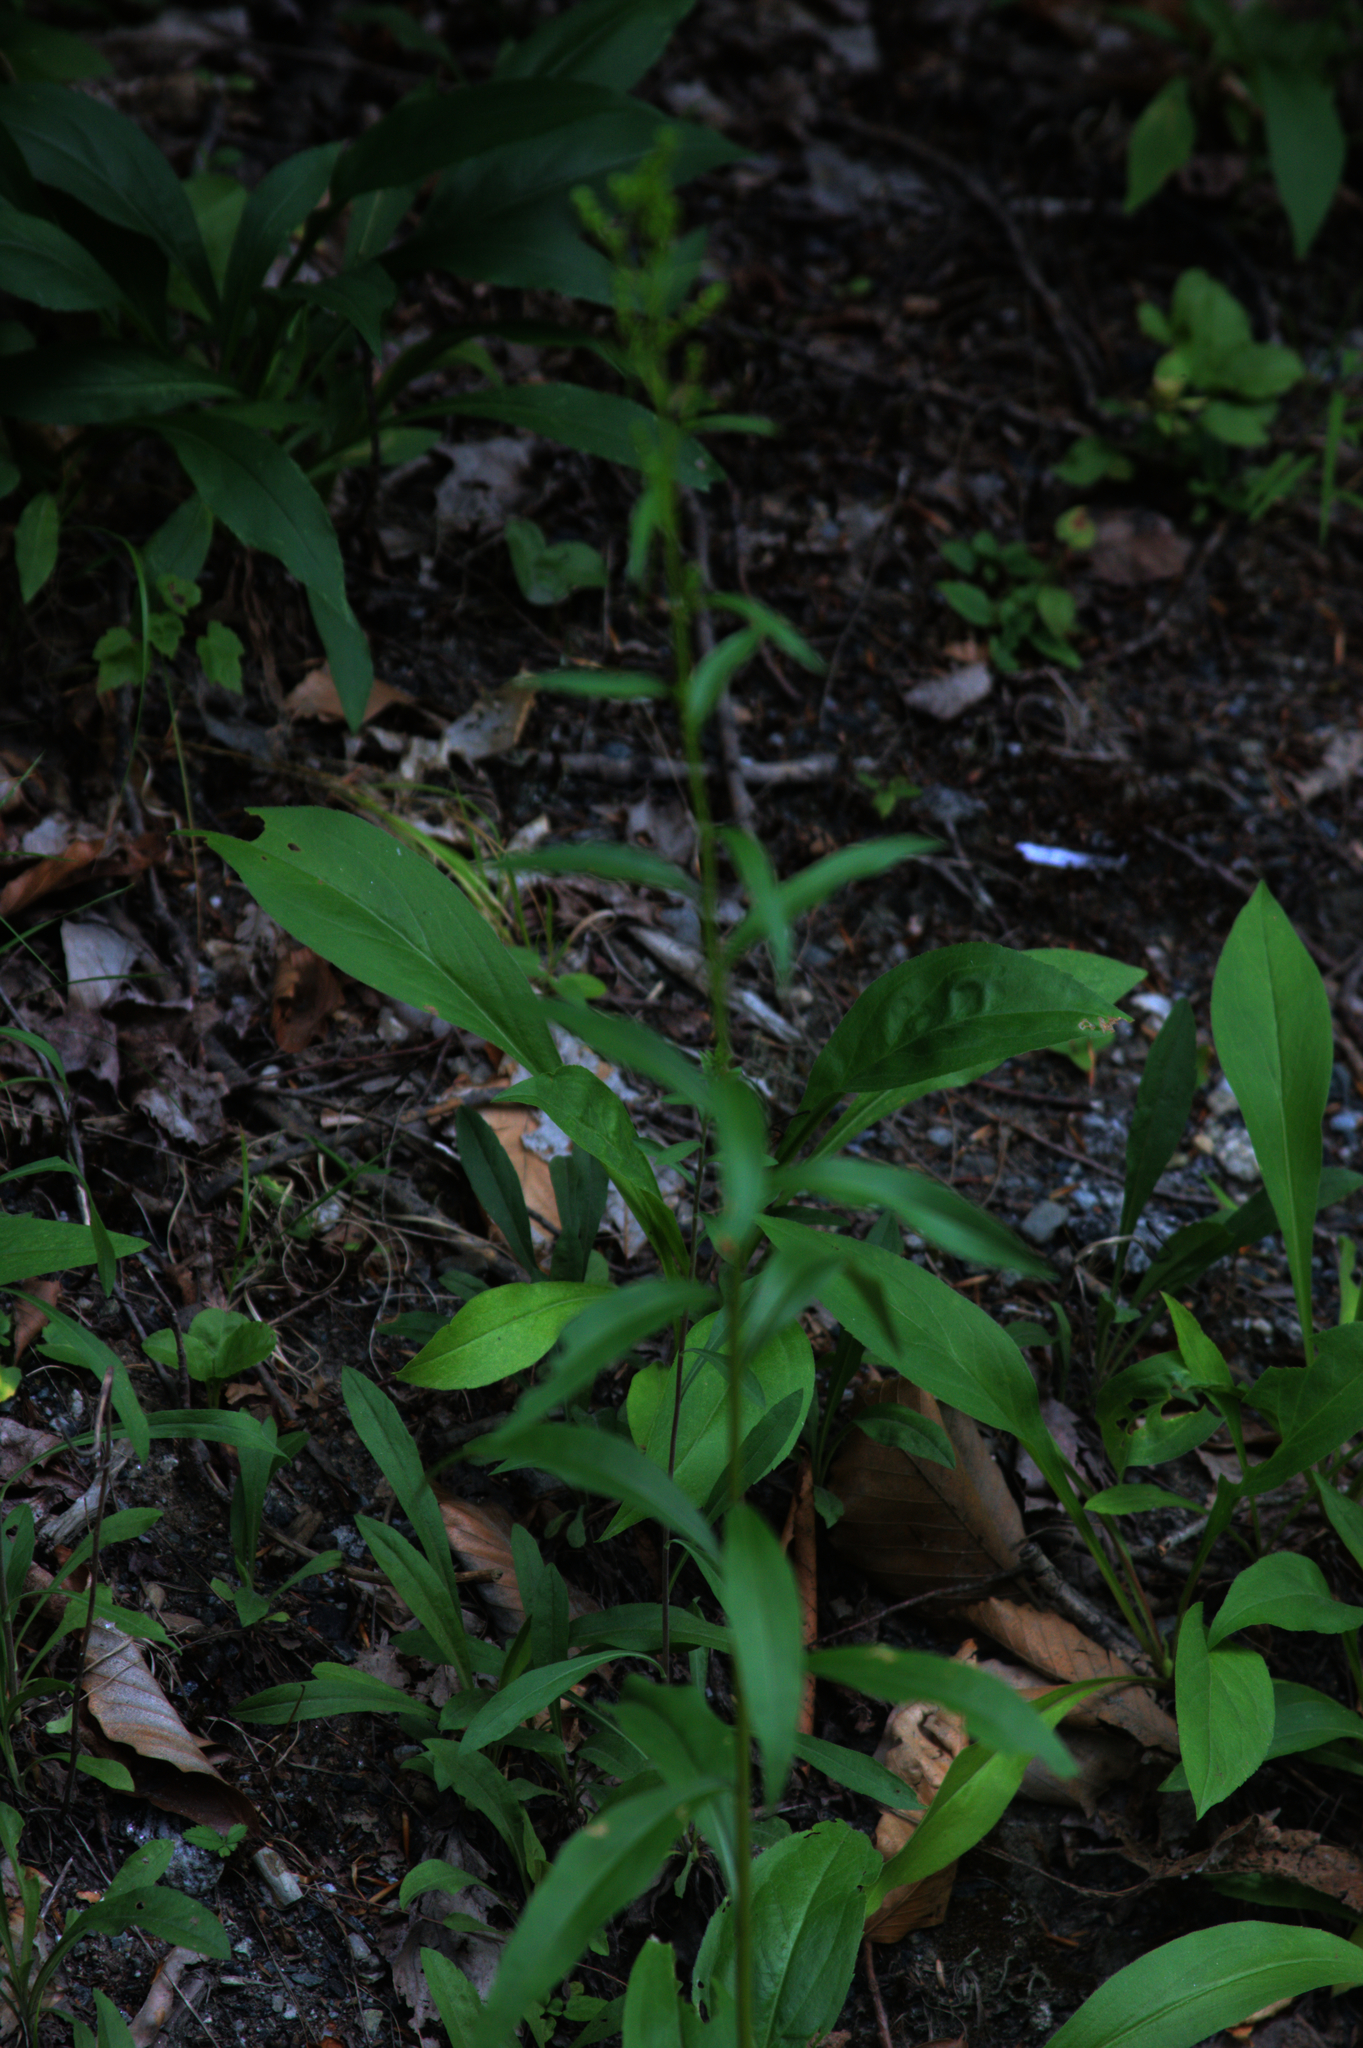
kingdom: Plantae
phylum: Tracheophyta
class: Magnoliopsida
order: Asterales
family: Asteraceae
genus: Solidago
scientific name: Solidago juncea
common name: Early goldenrod
